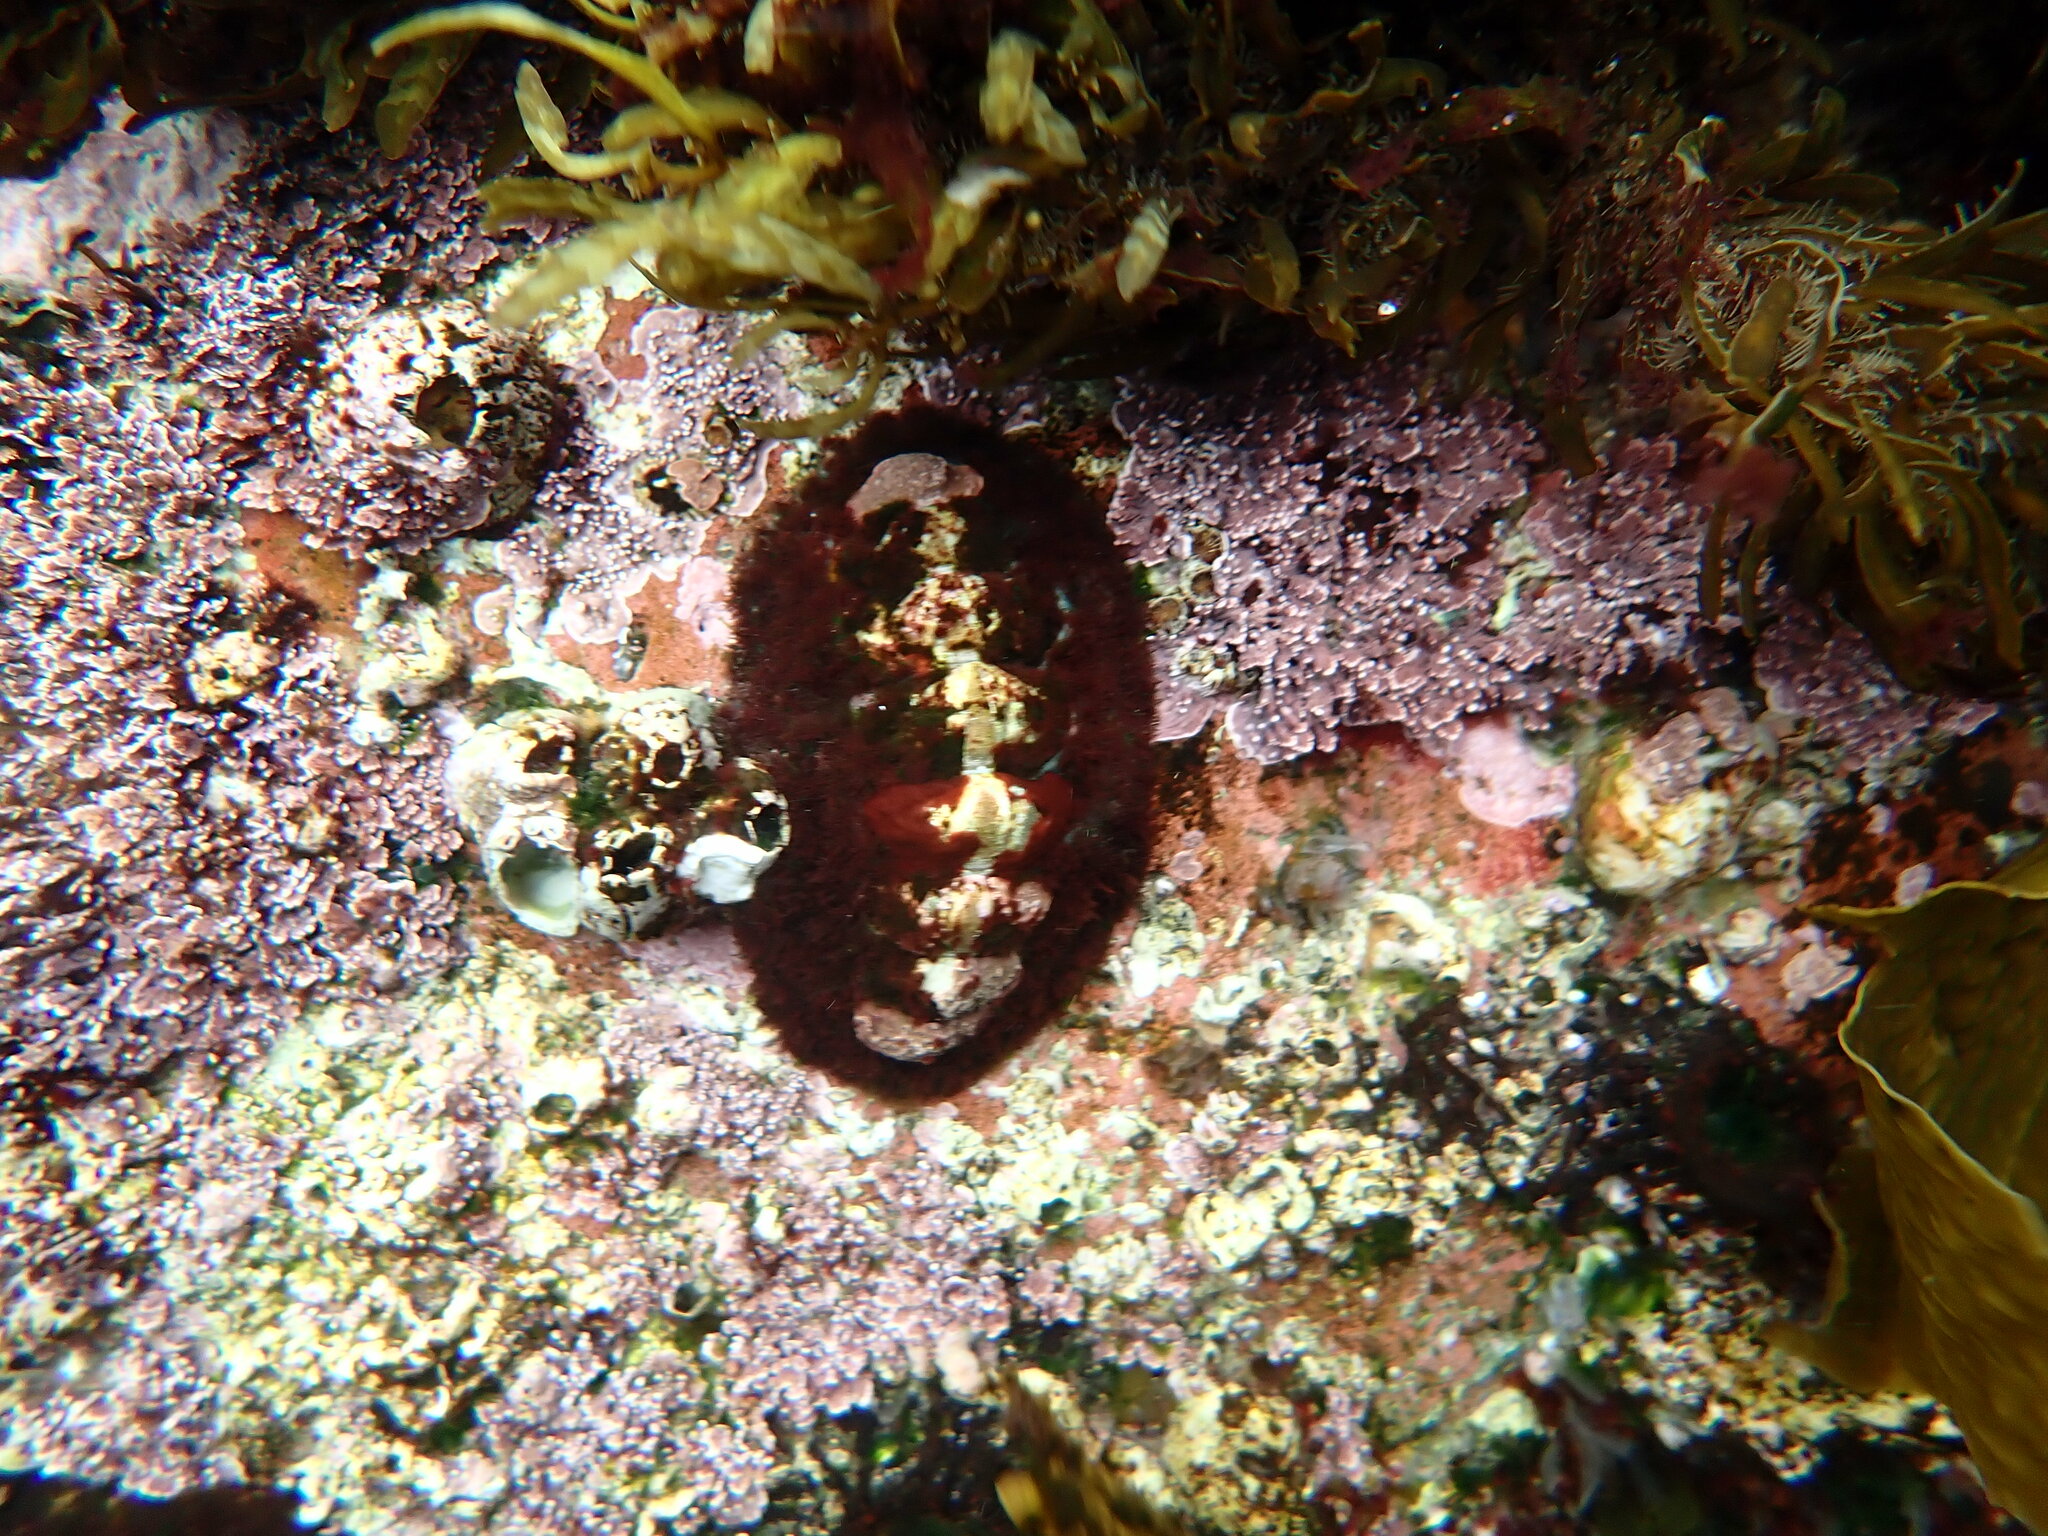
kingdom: Animalia
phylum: Mollusca
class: Polyplacophora
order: Chitonida
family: Mopaliidae
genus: Plaxiphora
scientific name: Plaxiphora albida
